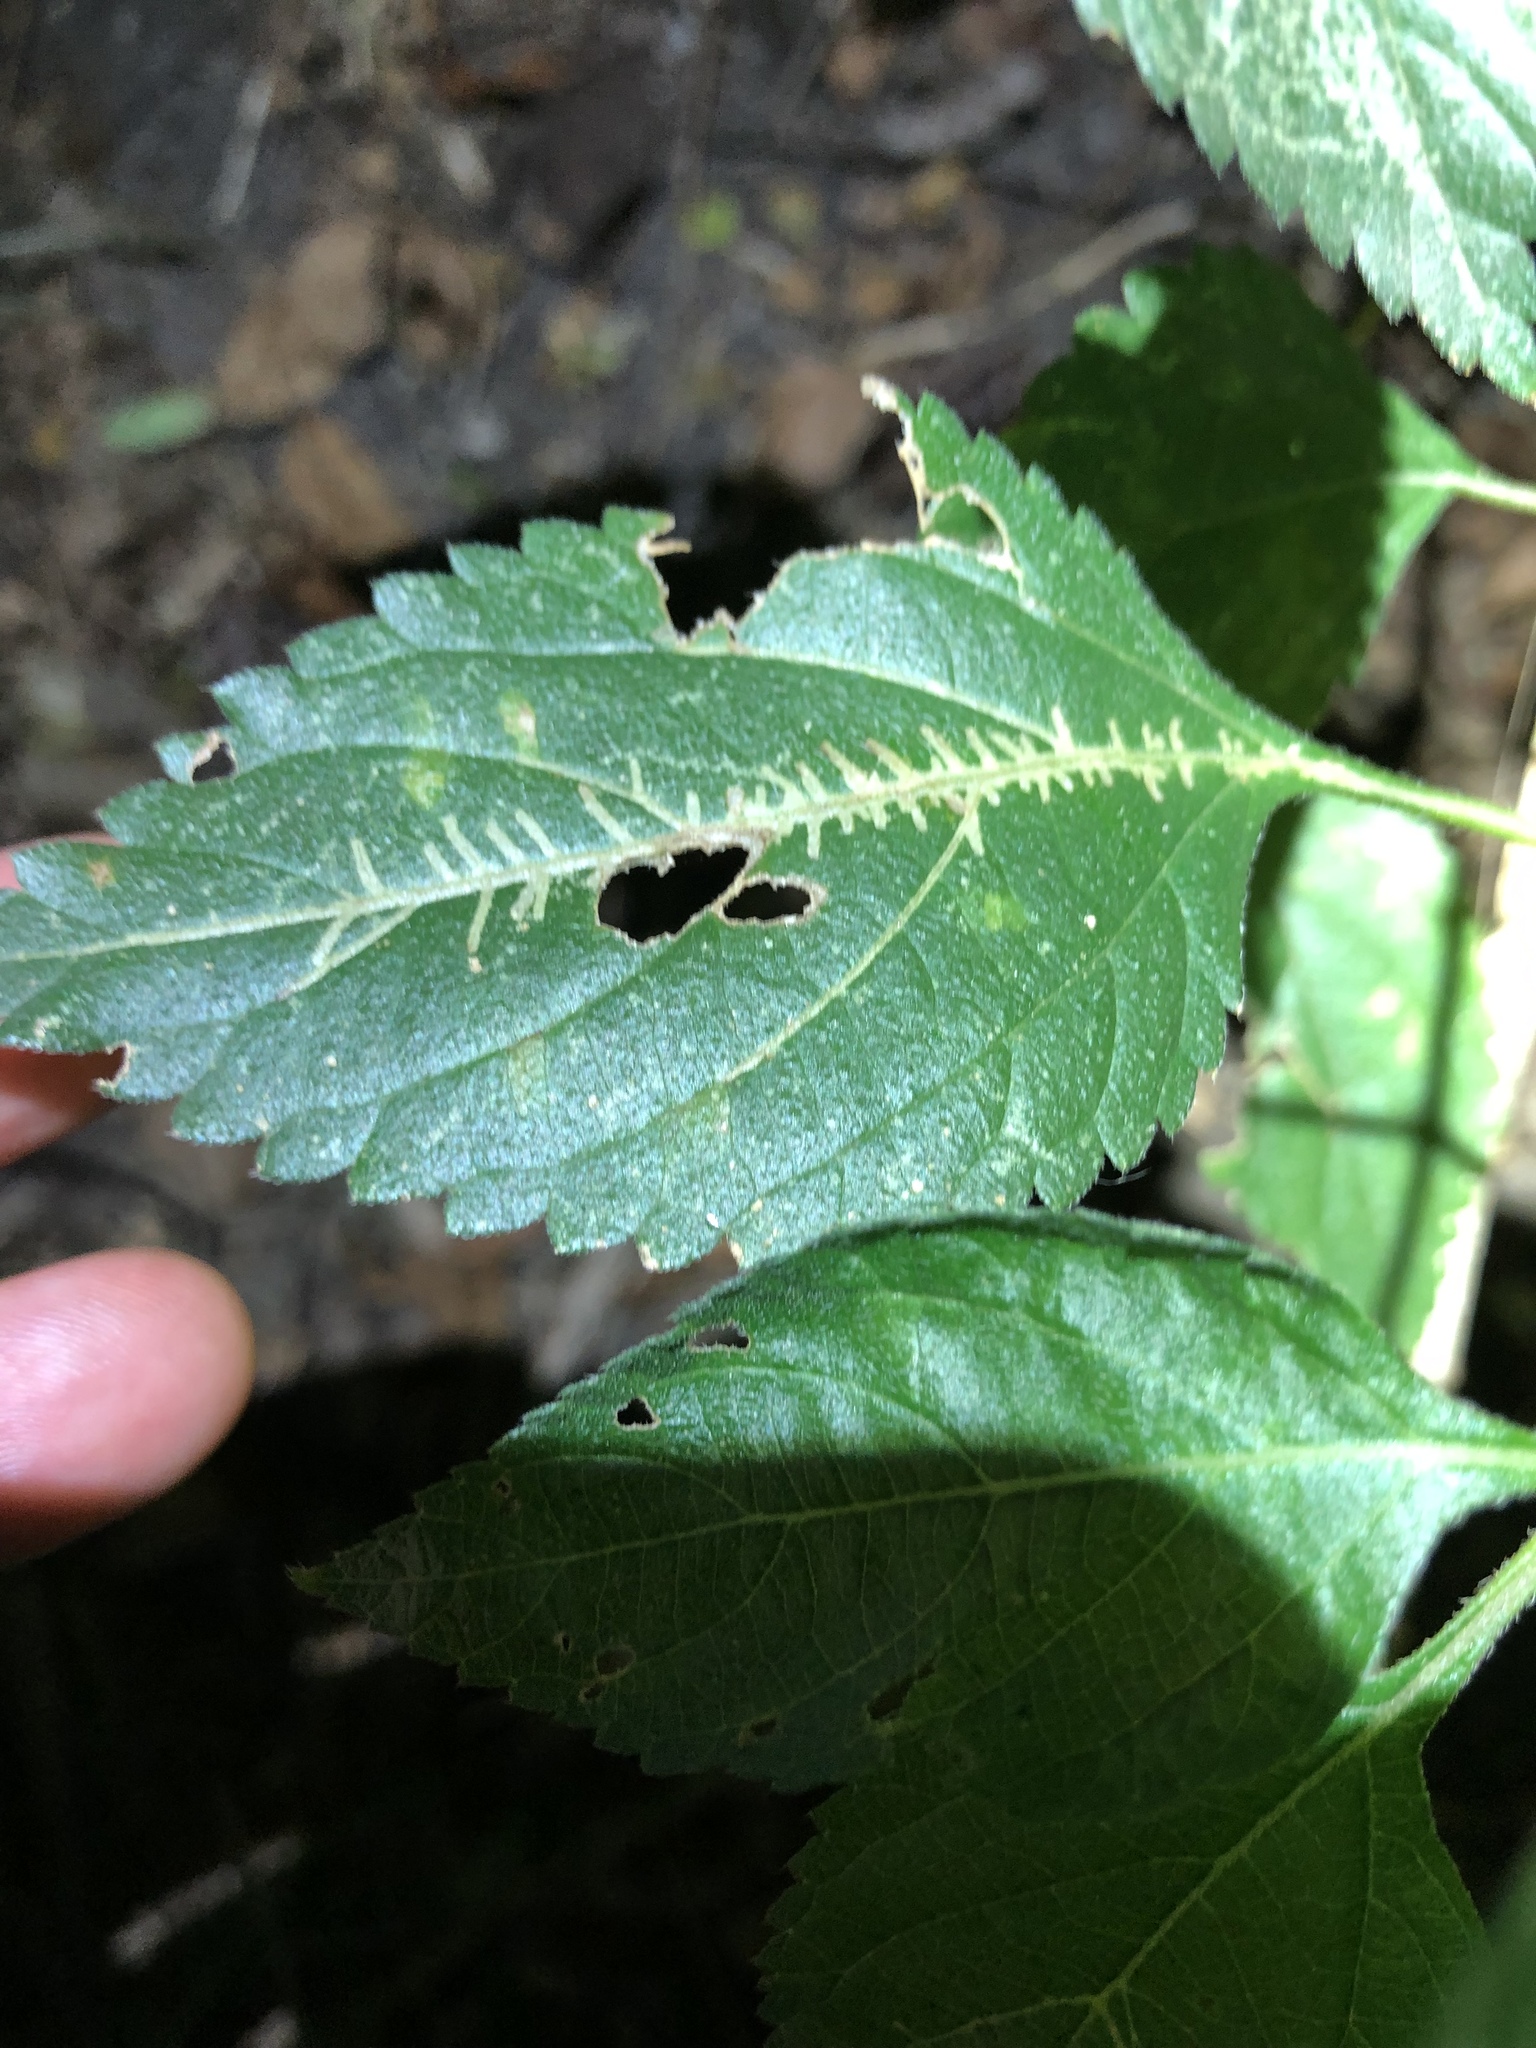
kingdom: Animalia
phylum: Arthropoda
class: Insecta
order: Diptera
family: Agromyzidae
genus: Ophiomyia
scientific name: Ophiomyia camarae
